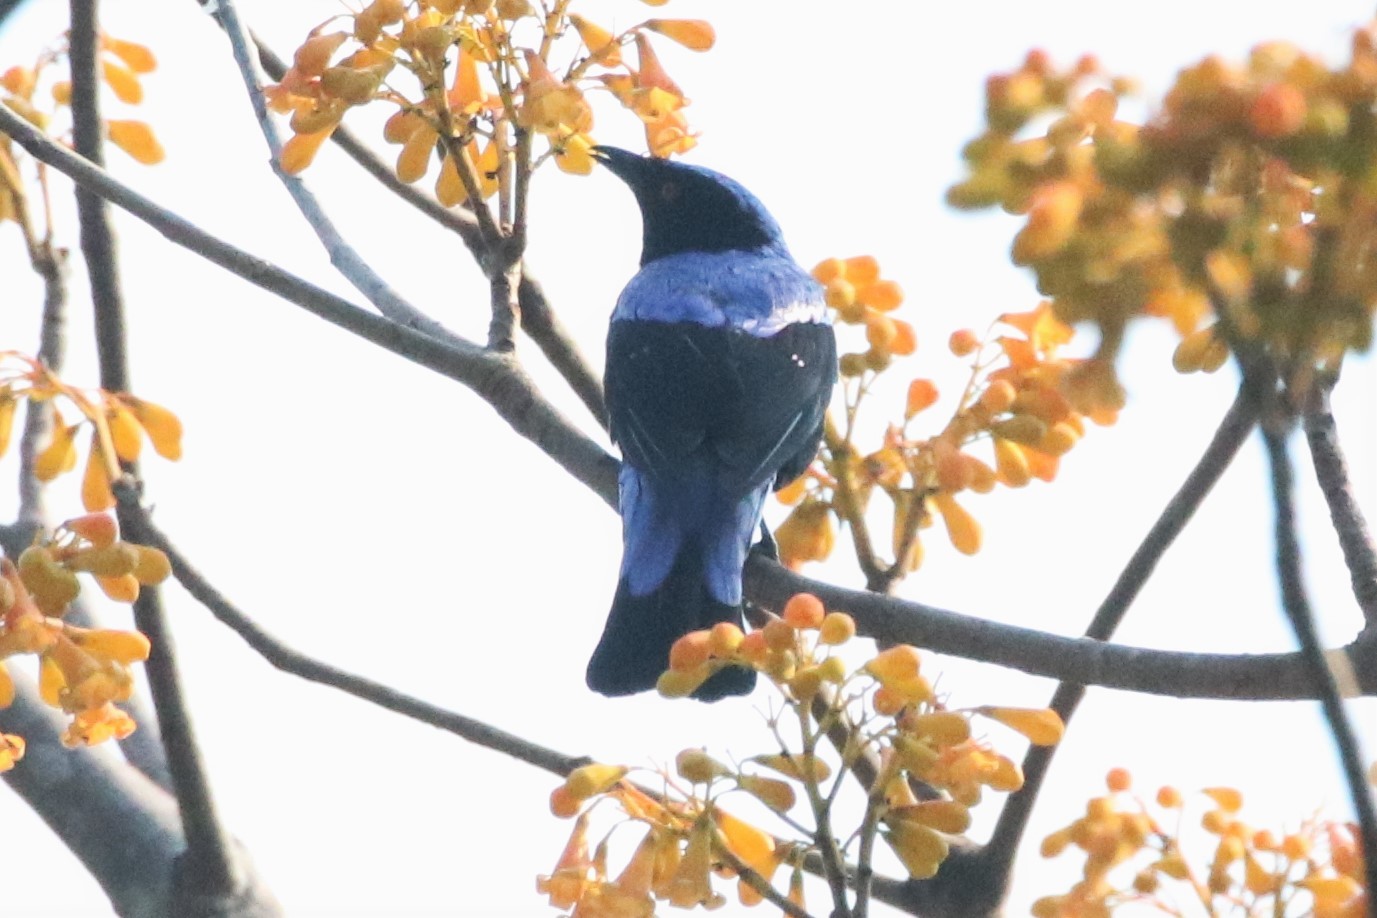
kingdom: Animalia
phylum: Chordata
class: Aves
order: Passeriformes
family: Irenidae
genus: Irena
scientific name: Irena puella
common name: Asian fairy-bluebird
